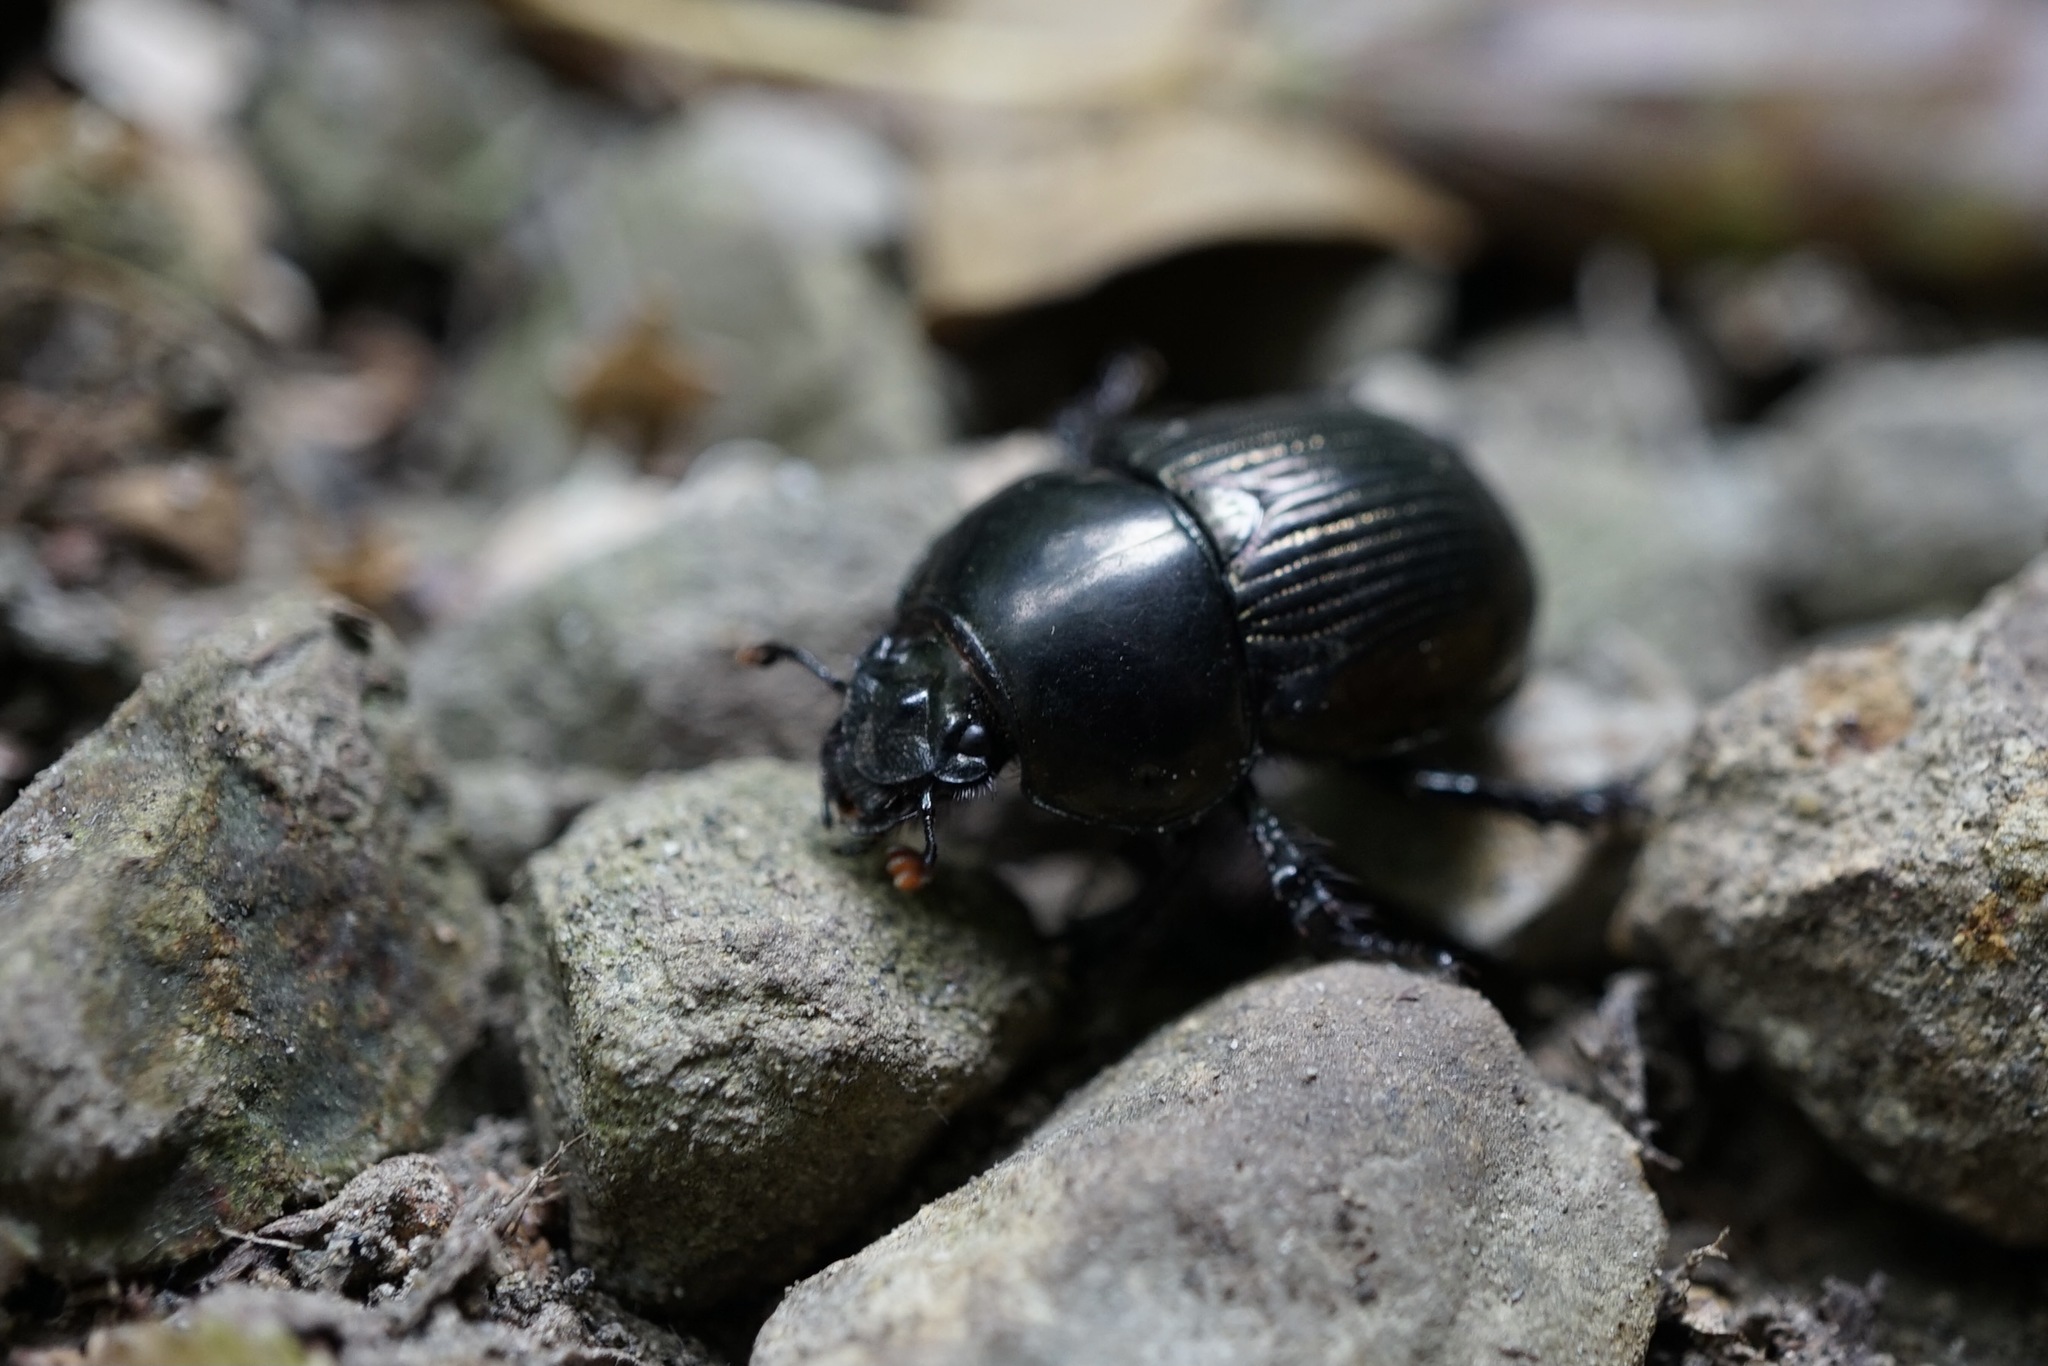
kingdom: Animalia
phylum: Arthropoda
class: Insecta
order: Coleoptera
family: Geotrupidae
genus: Phelotrupes
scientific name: Phelotrupes laevistriatus
